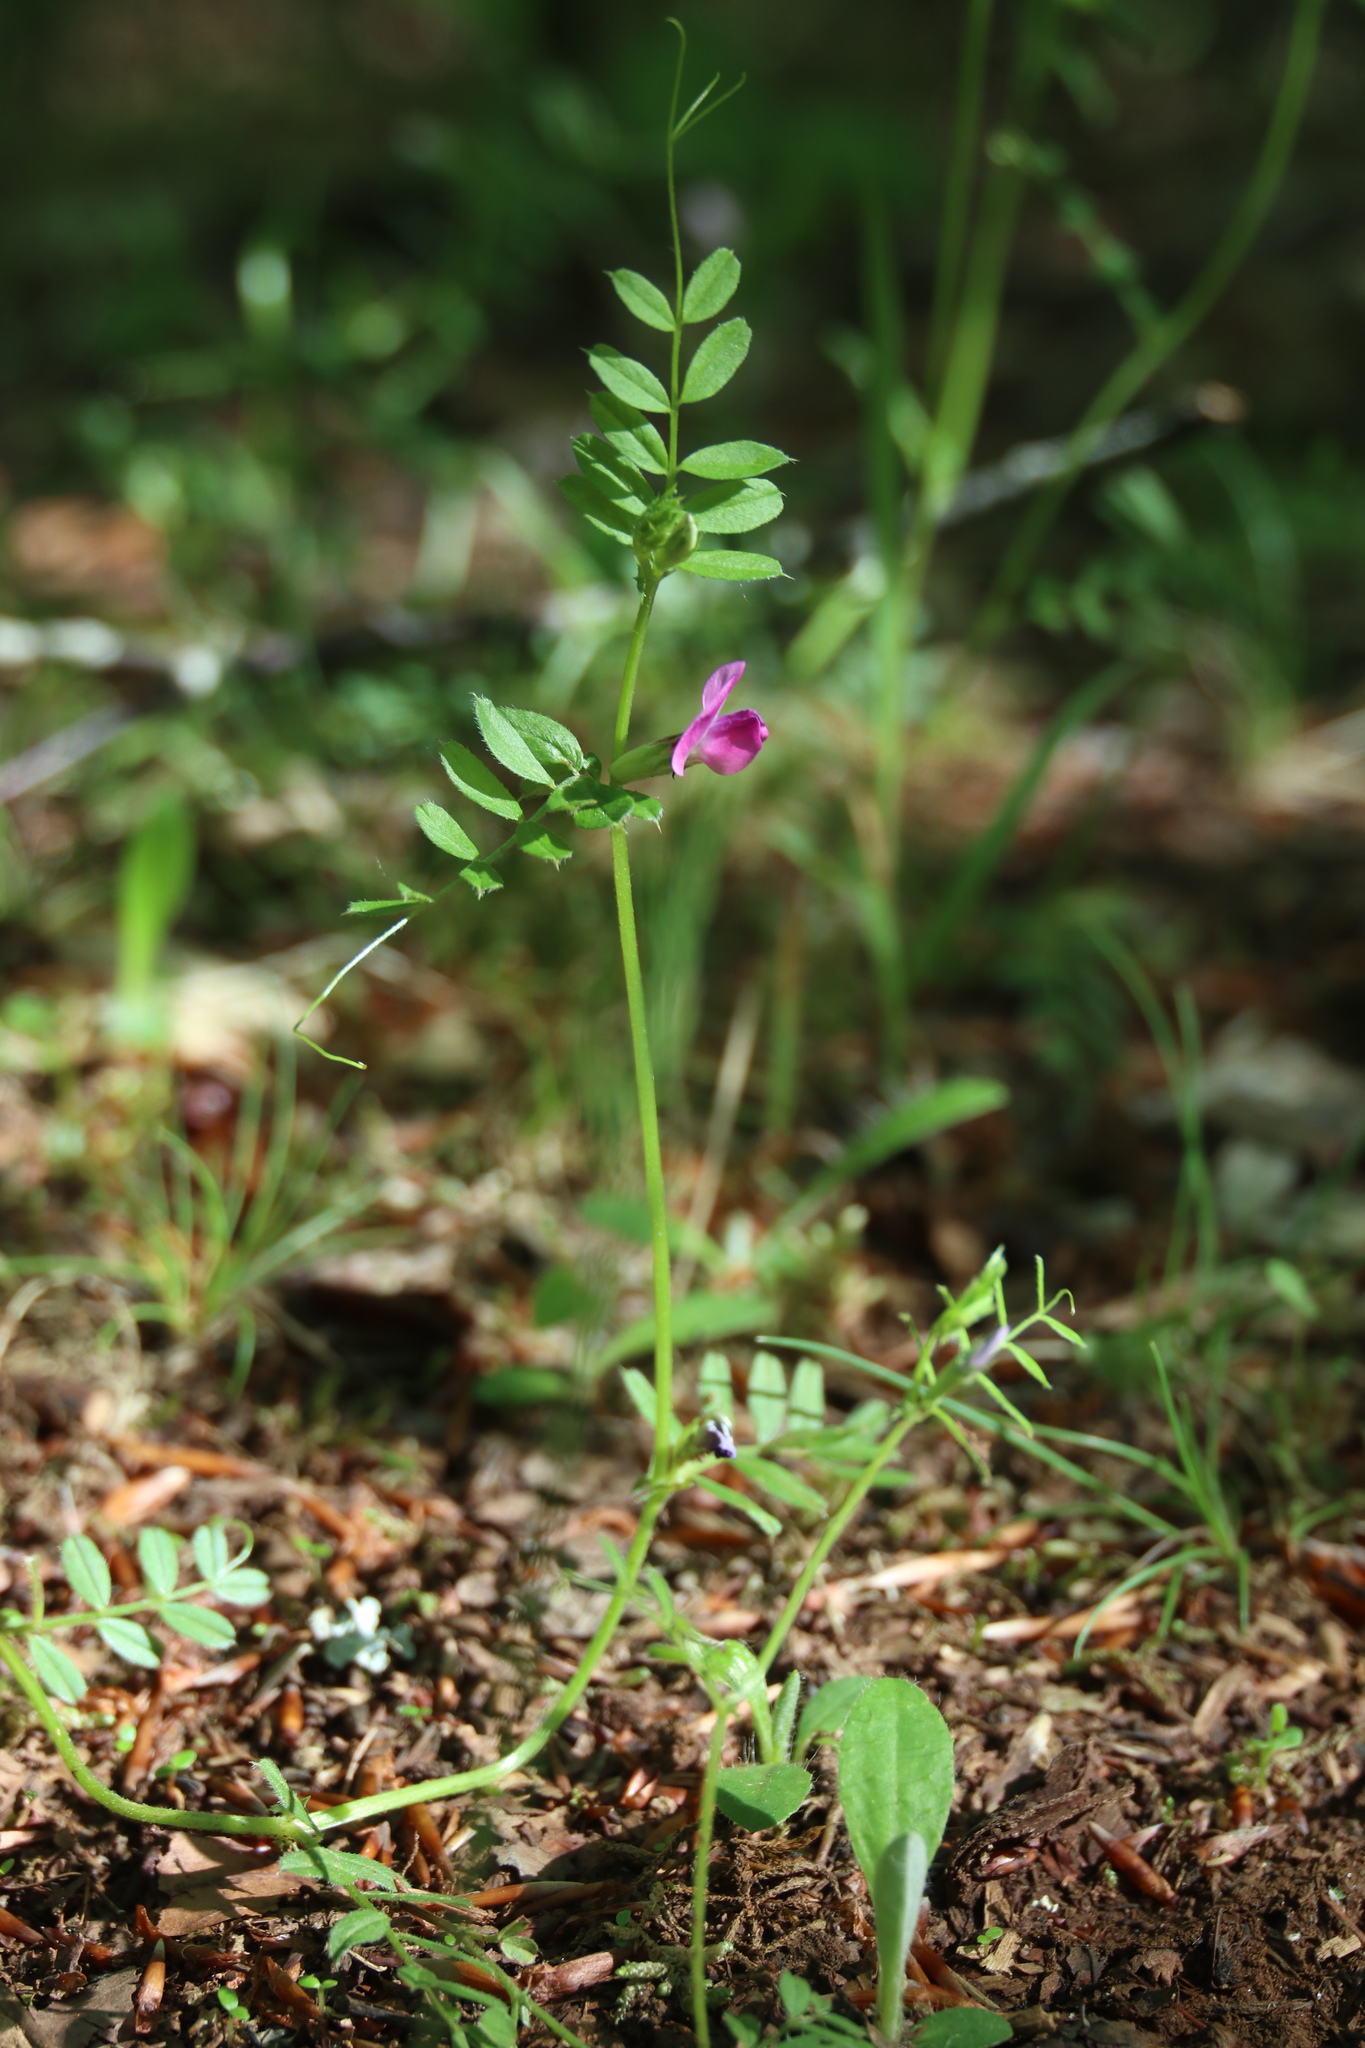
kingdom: Plantae
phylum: Tracheophyta
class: Magnoliopsida
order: Fabales
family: Fabaceae
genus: Vicia
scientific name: Vicia sativa
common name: Garden vetch
